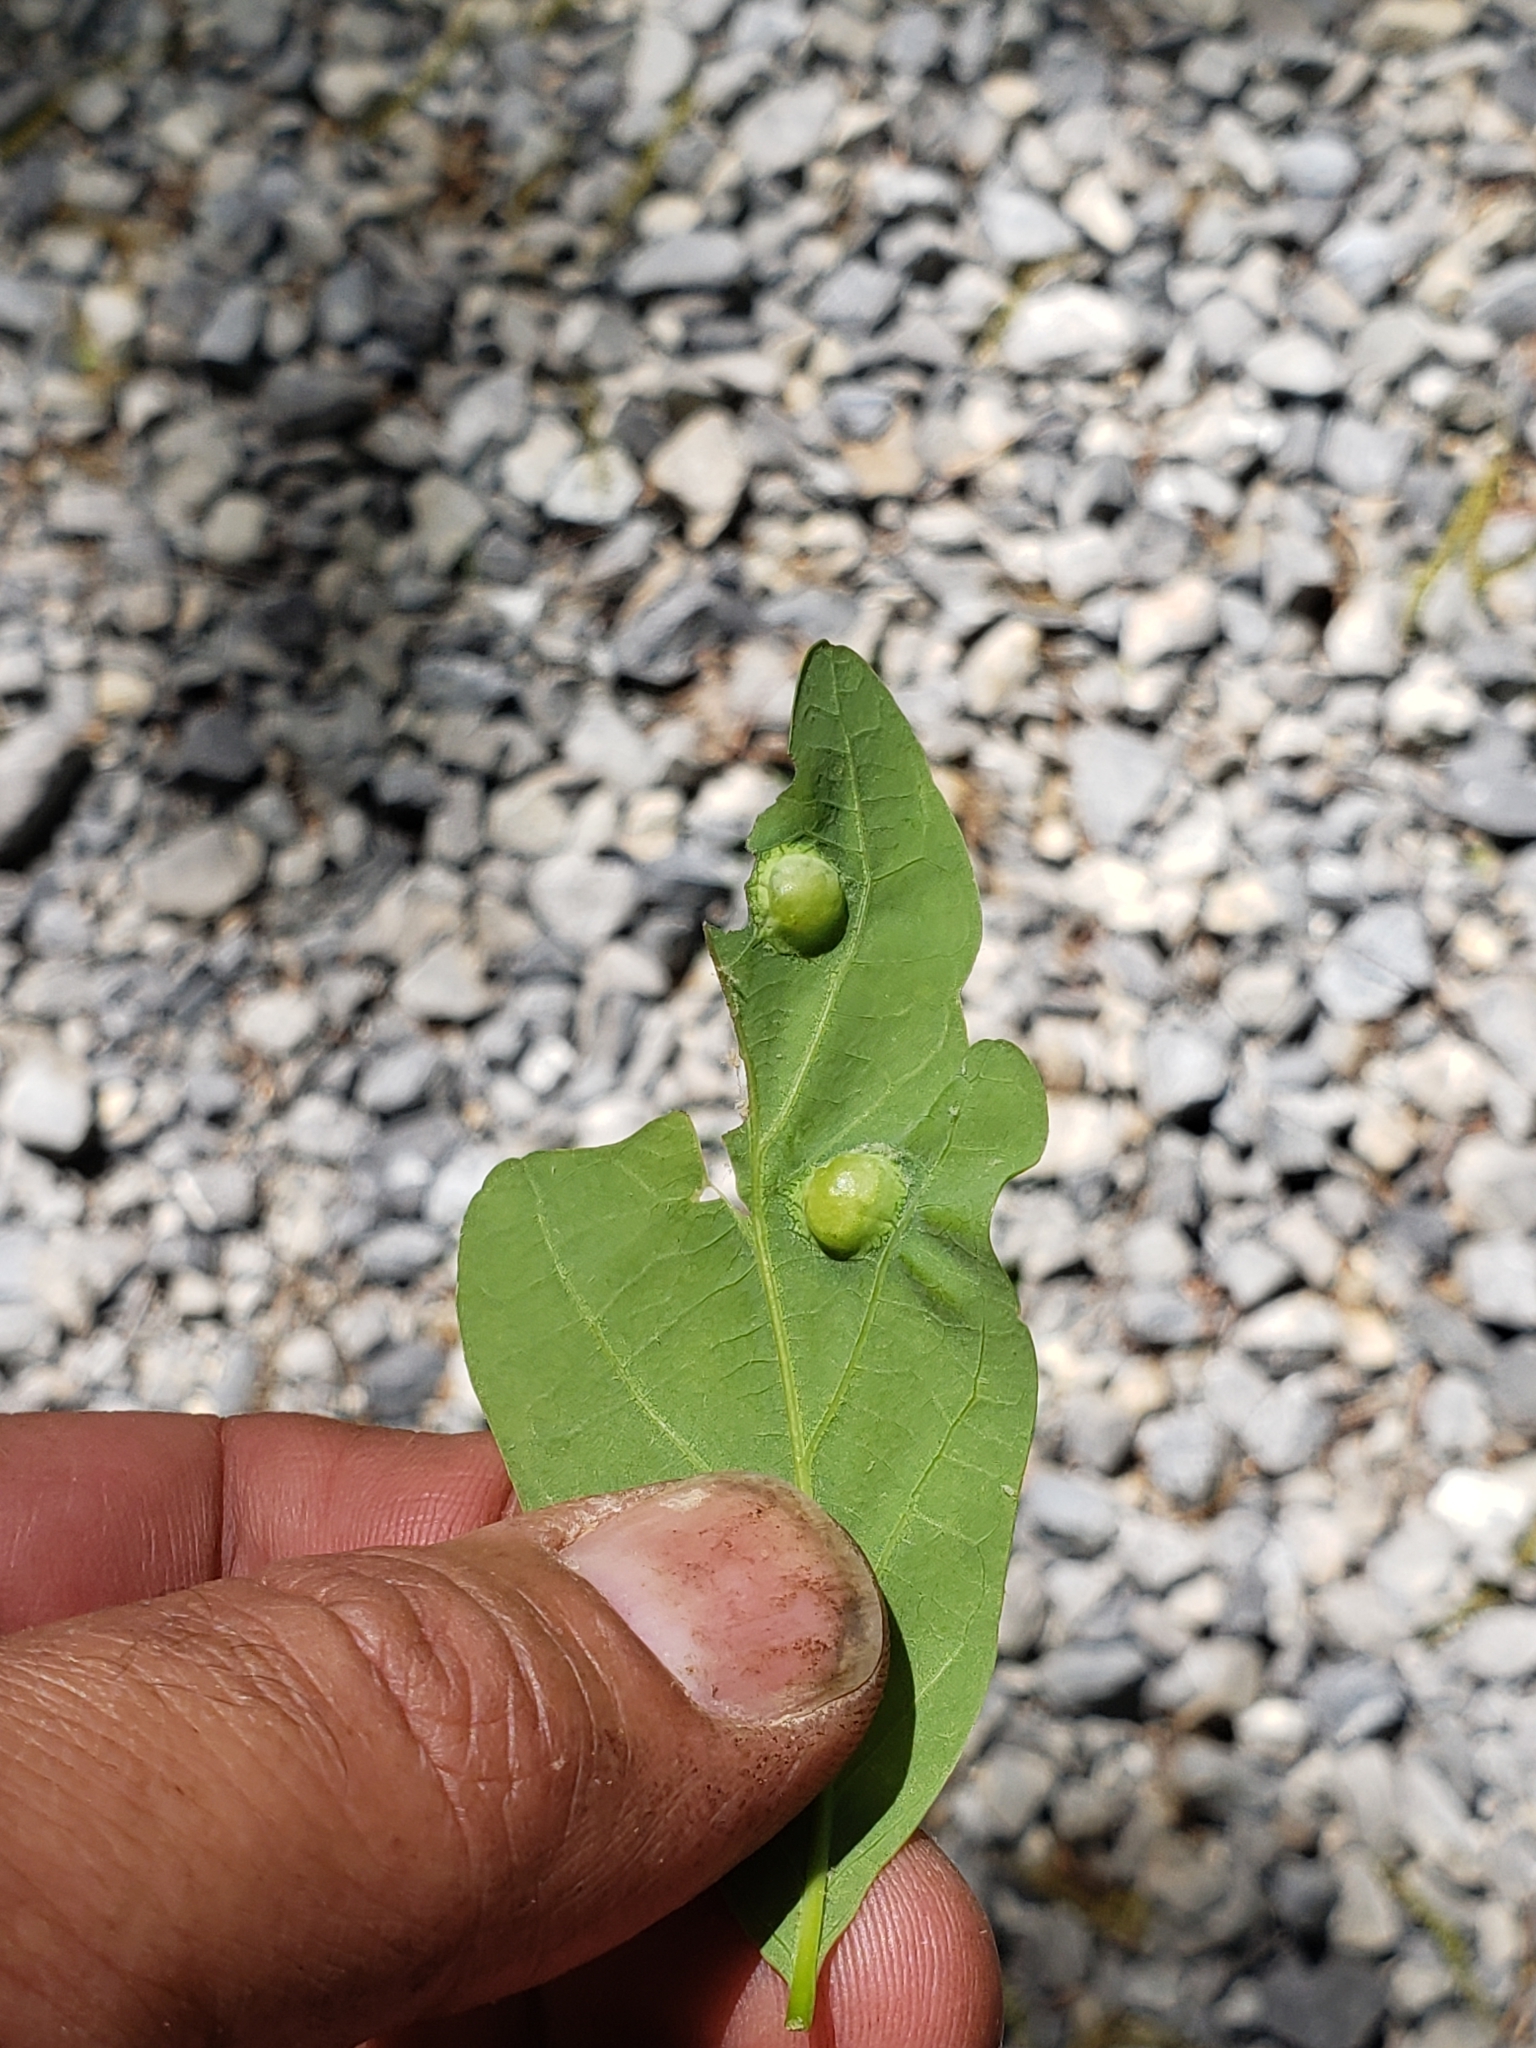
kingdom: Animalia
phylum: Arthropoda
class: Insecta
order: Hymenoptera
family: Cynipidae
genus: Callirhytis
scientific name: Callirhytis
